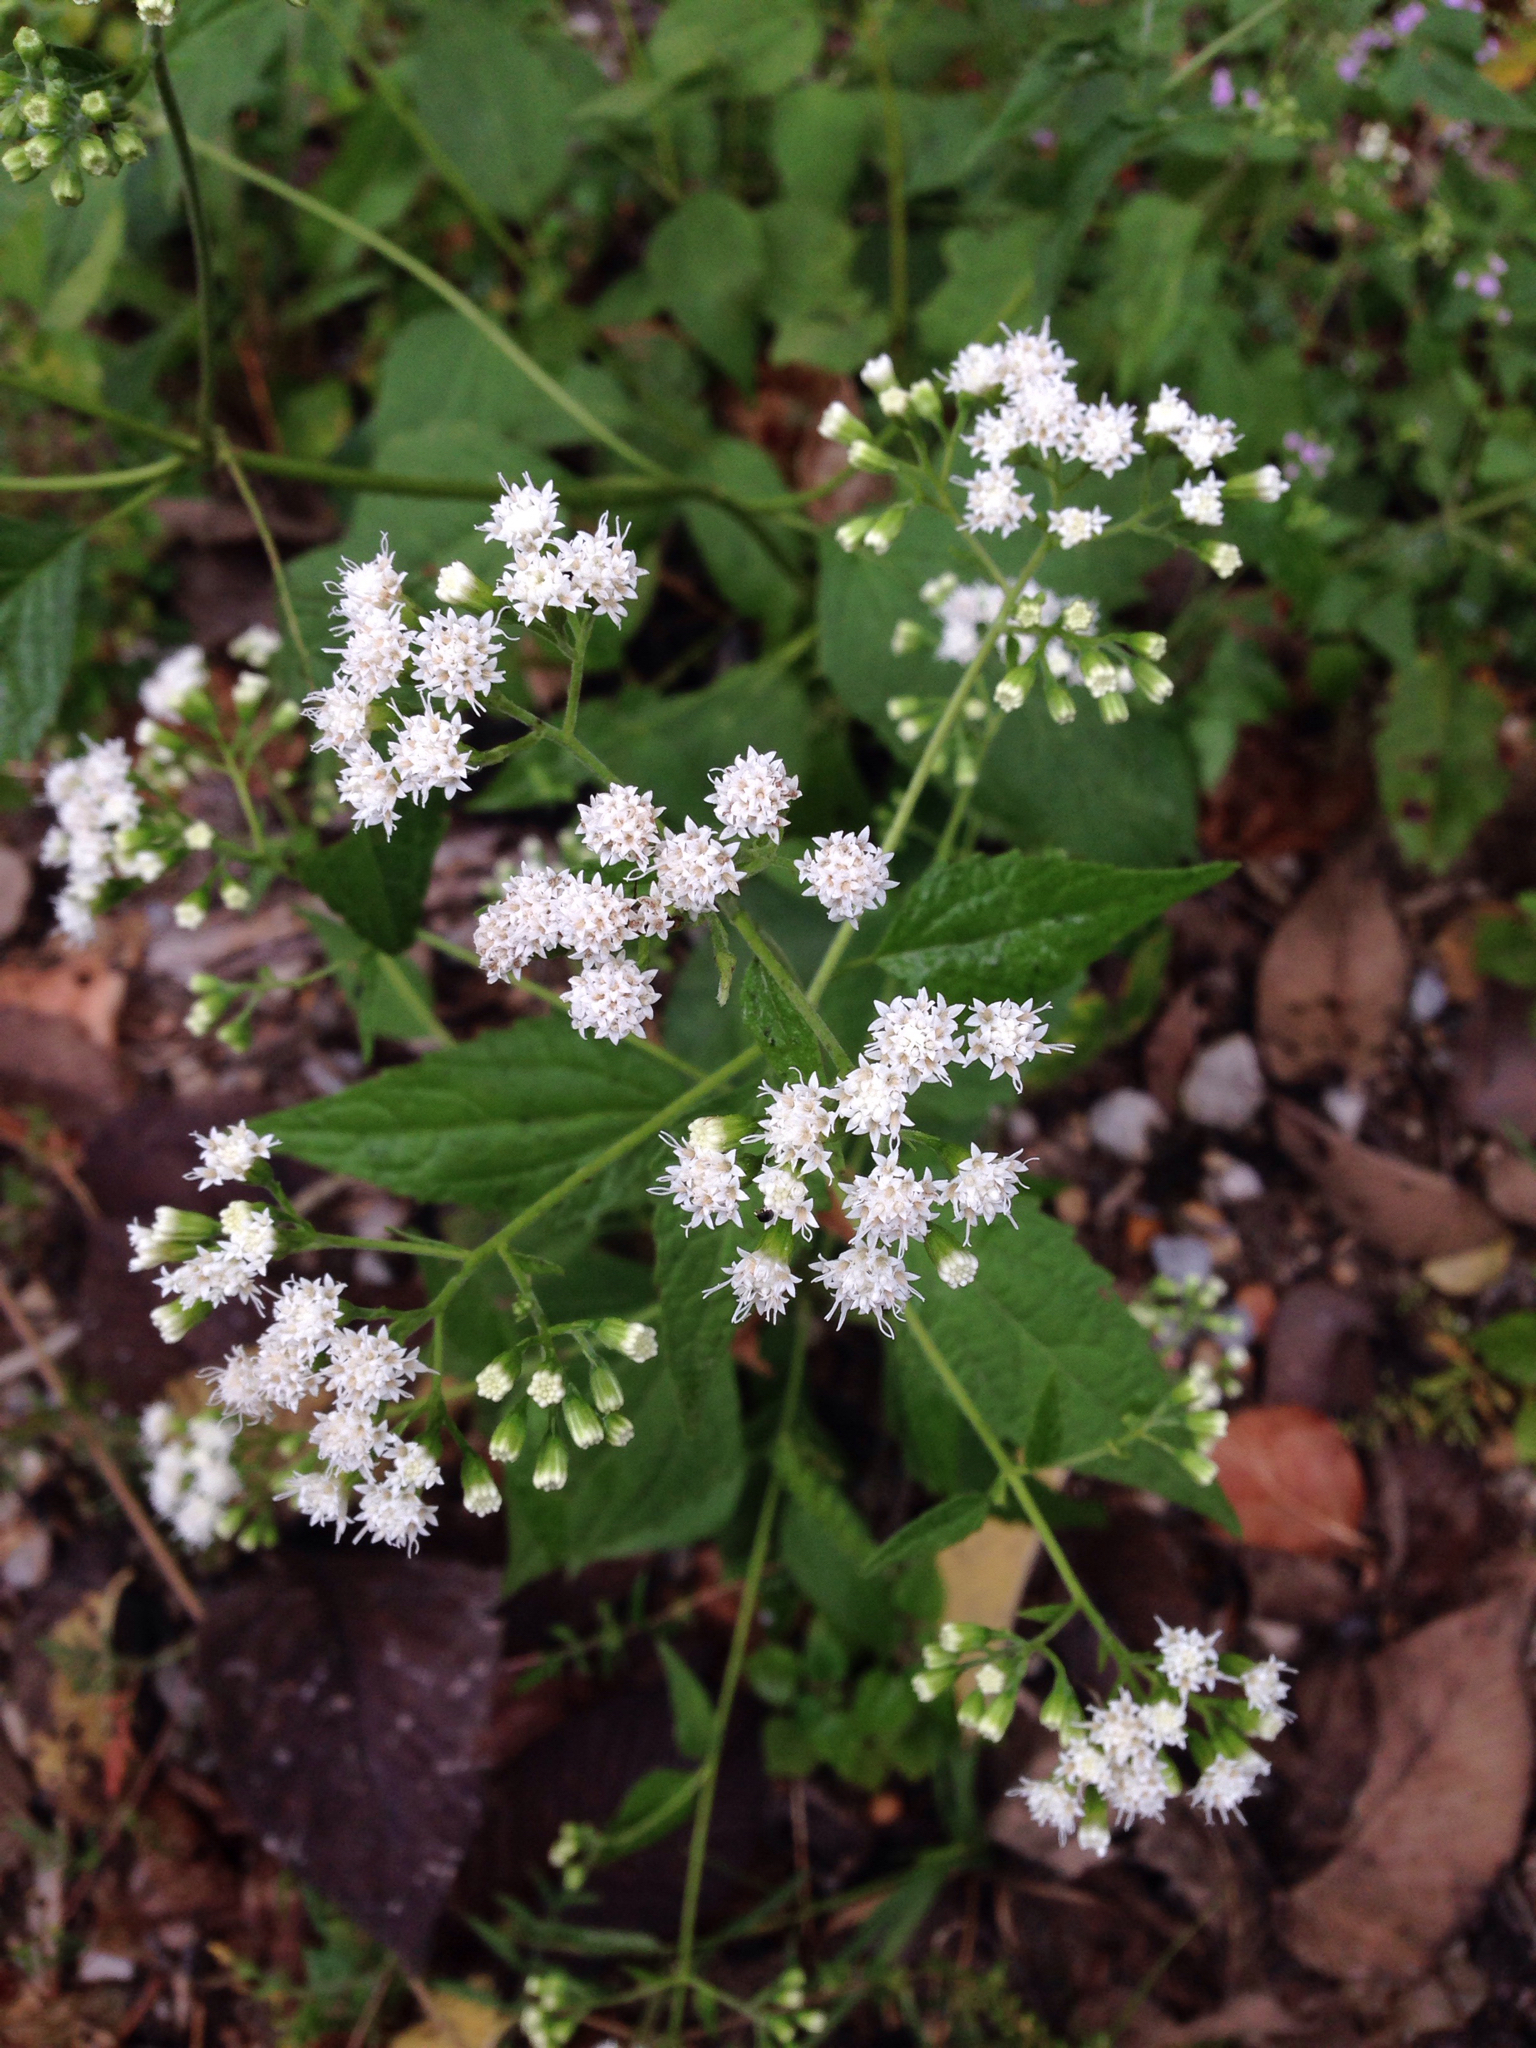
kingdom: Plantae
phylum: Tracheophyta
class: Magnoliopsida
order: Asterales
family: Asteraceae
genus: Ageratina
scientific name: Ageratina altissima
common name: White snakeroot
